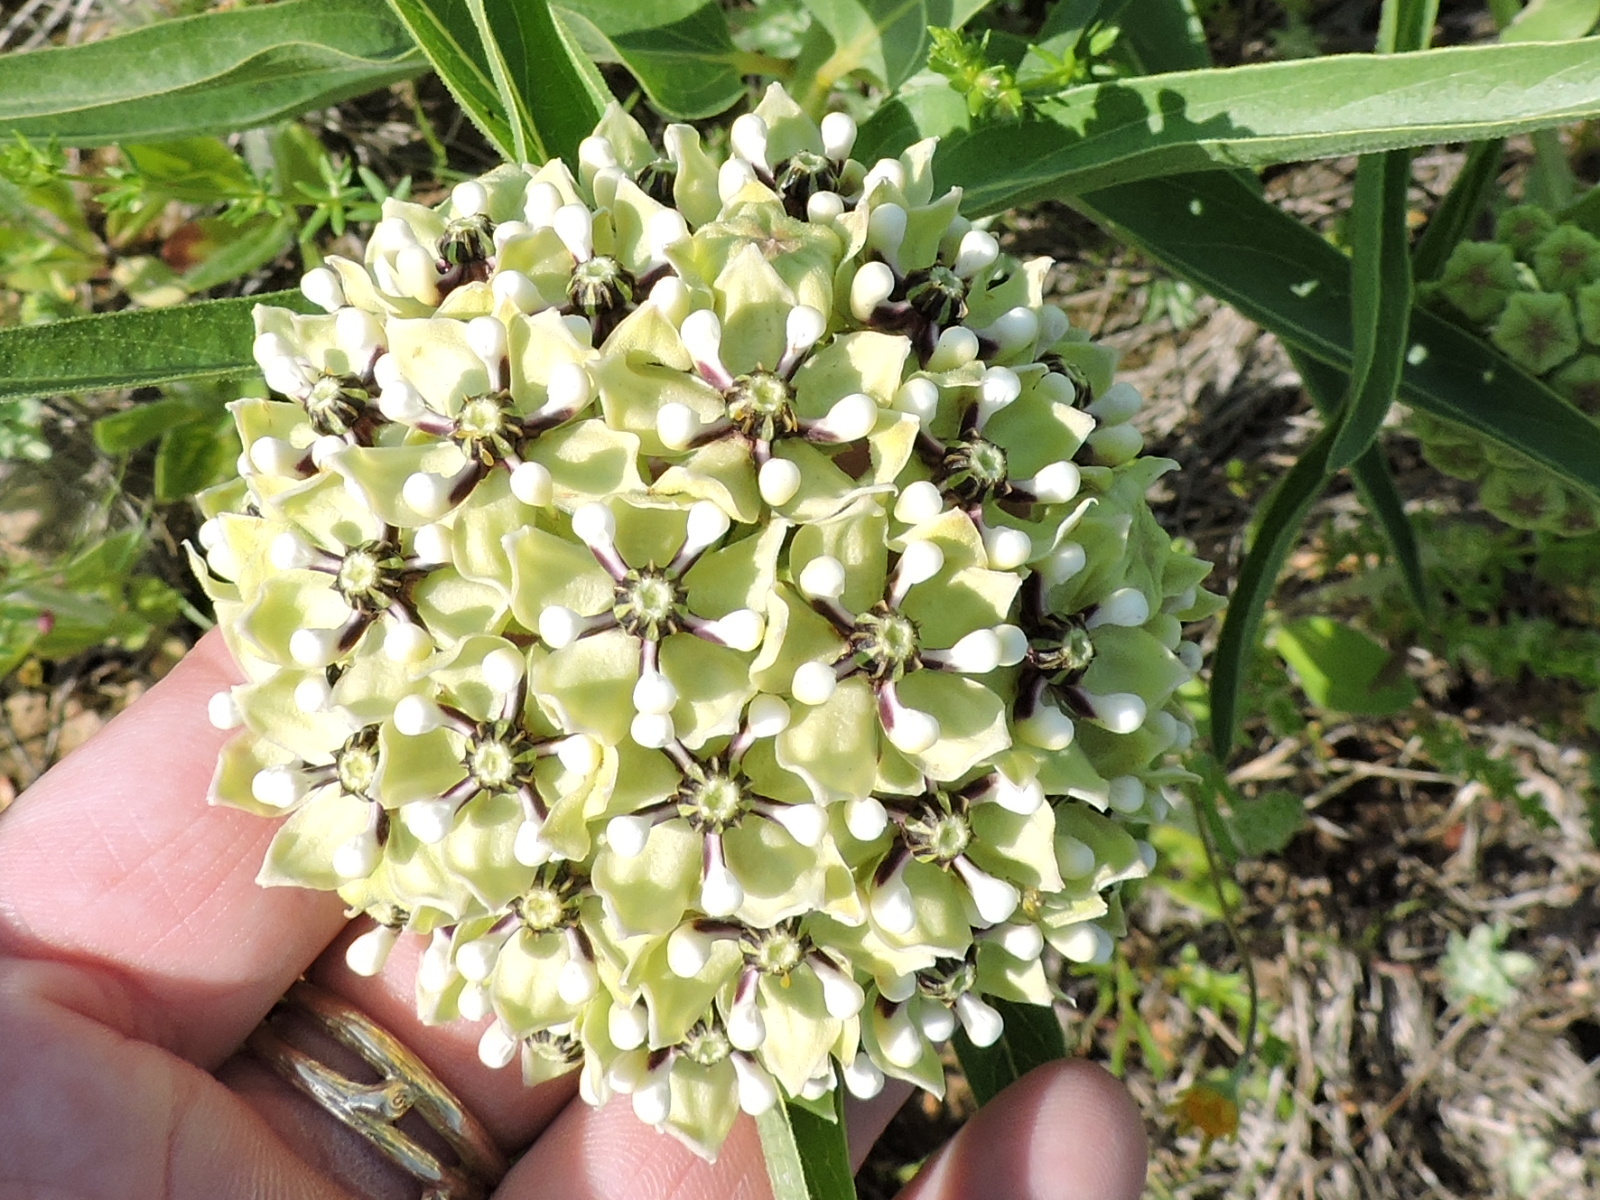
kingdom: Plantae
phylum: Tracheophyta
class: Magnoliopsida
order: Gentianales
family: Apocynaceae
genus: Asclepias
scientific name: Asclepias asperula
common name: Antelope horns
